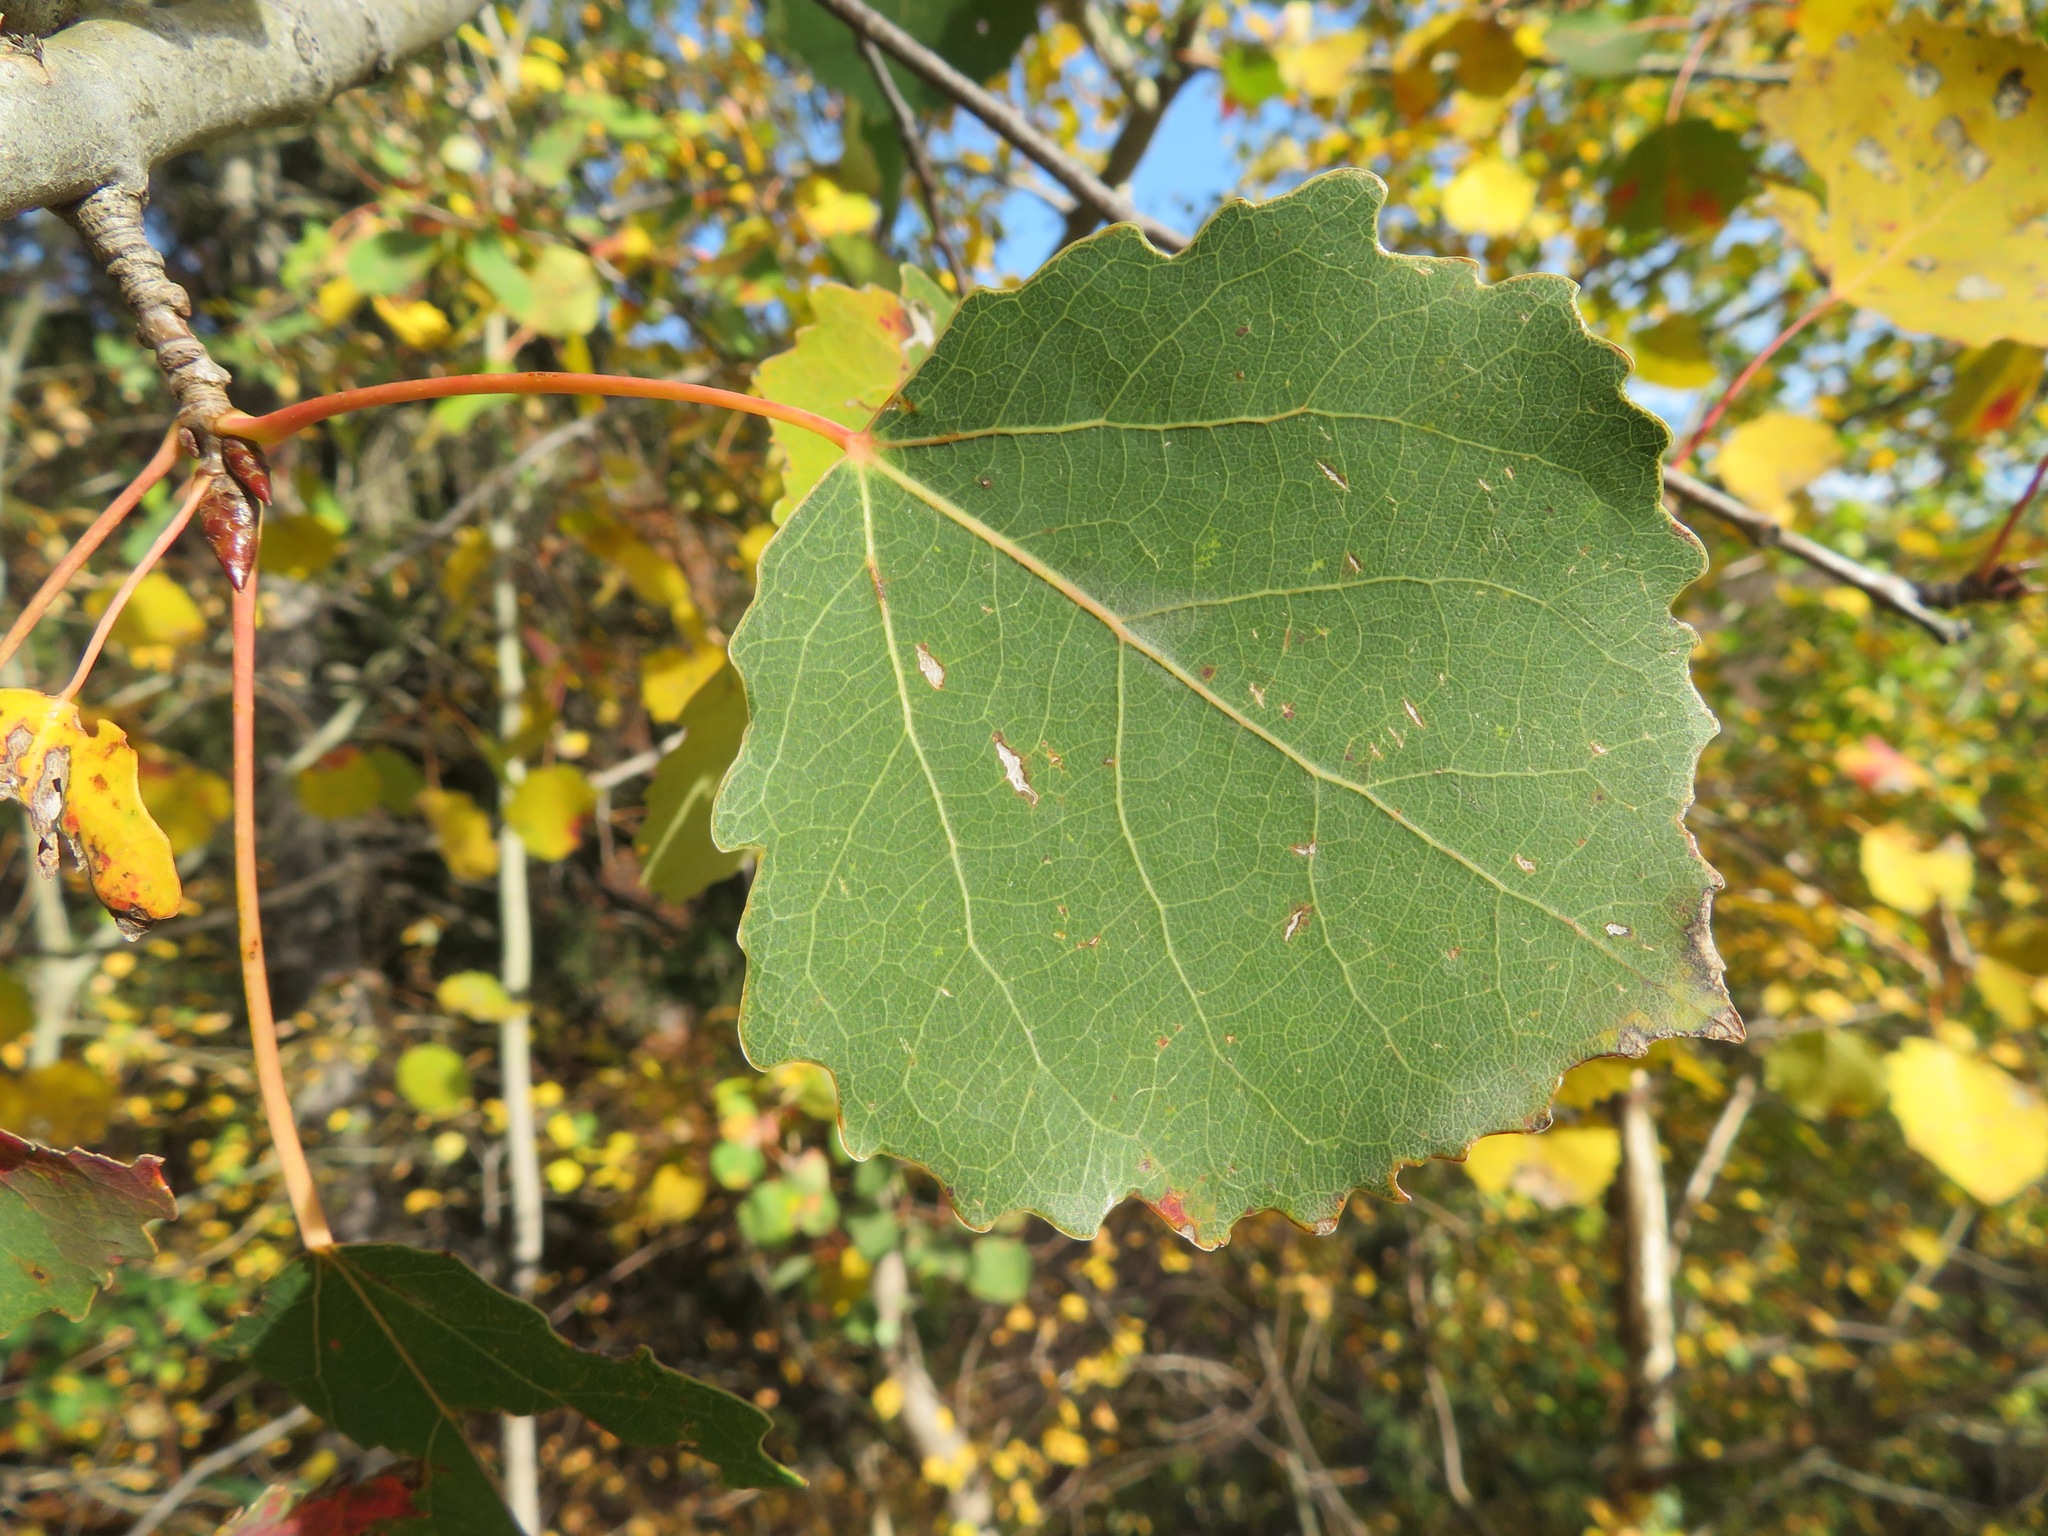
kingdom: Plantae
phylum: Tracheophyta
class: Magnoliopsida
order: Malpighiales
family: Salicaceae
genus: Populus
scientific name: Populus tremula
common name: European aspen
